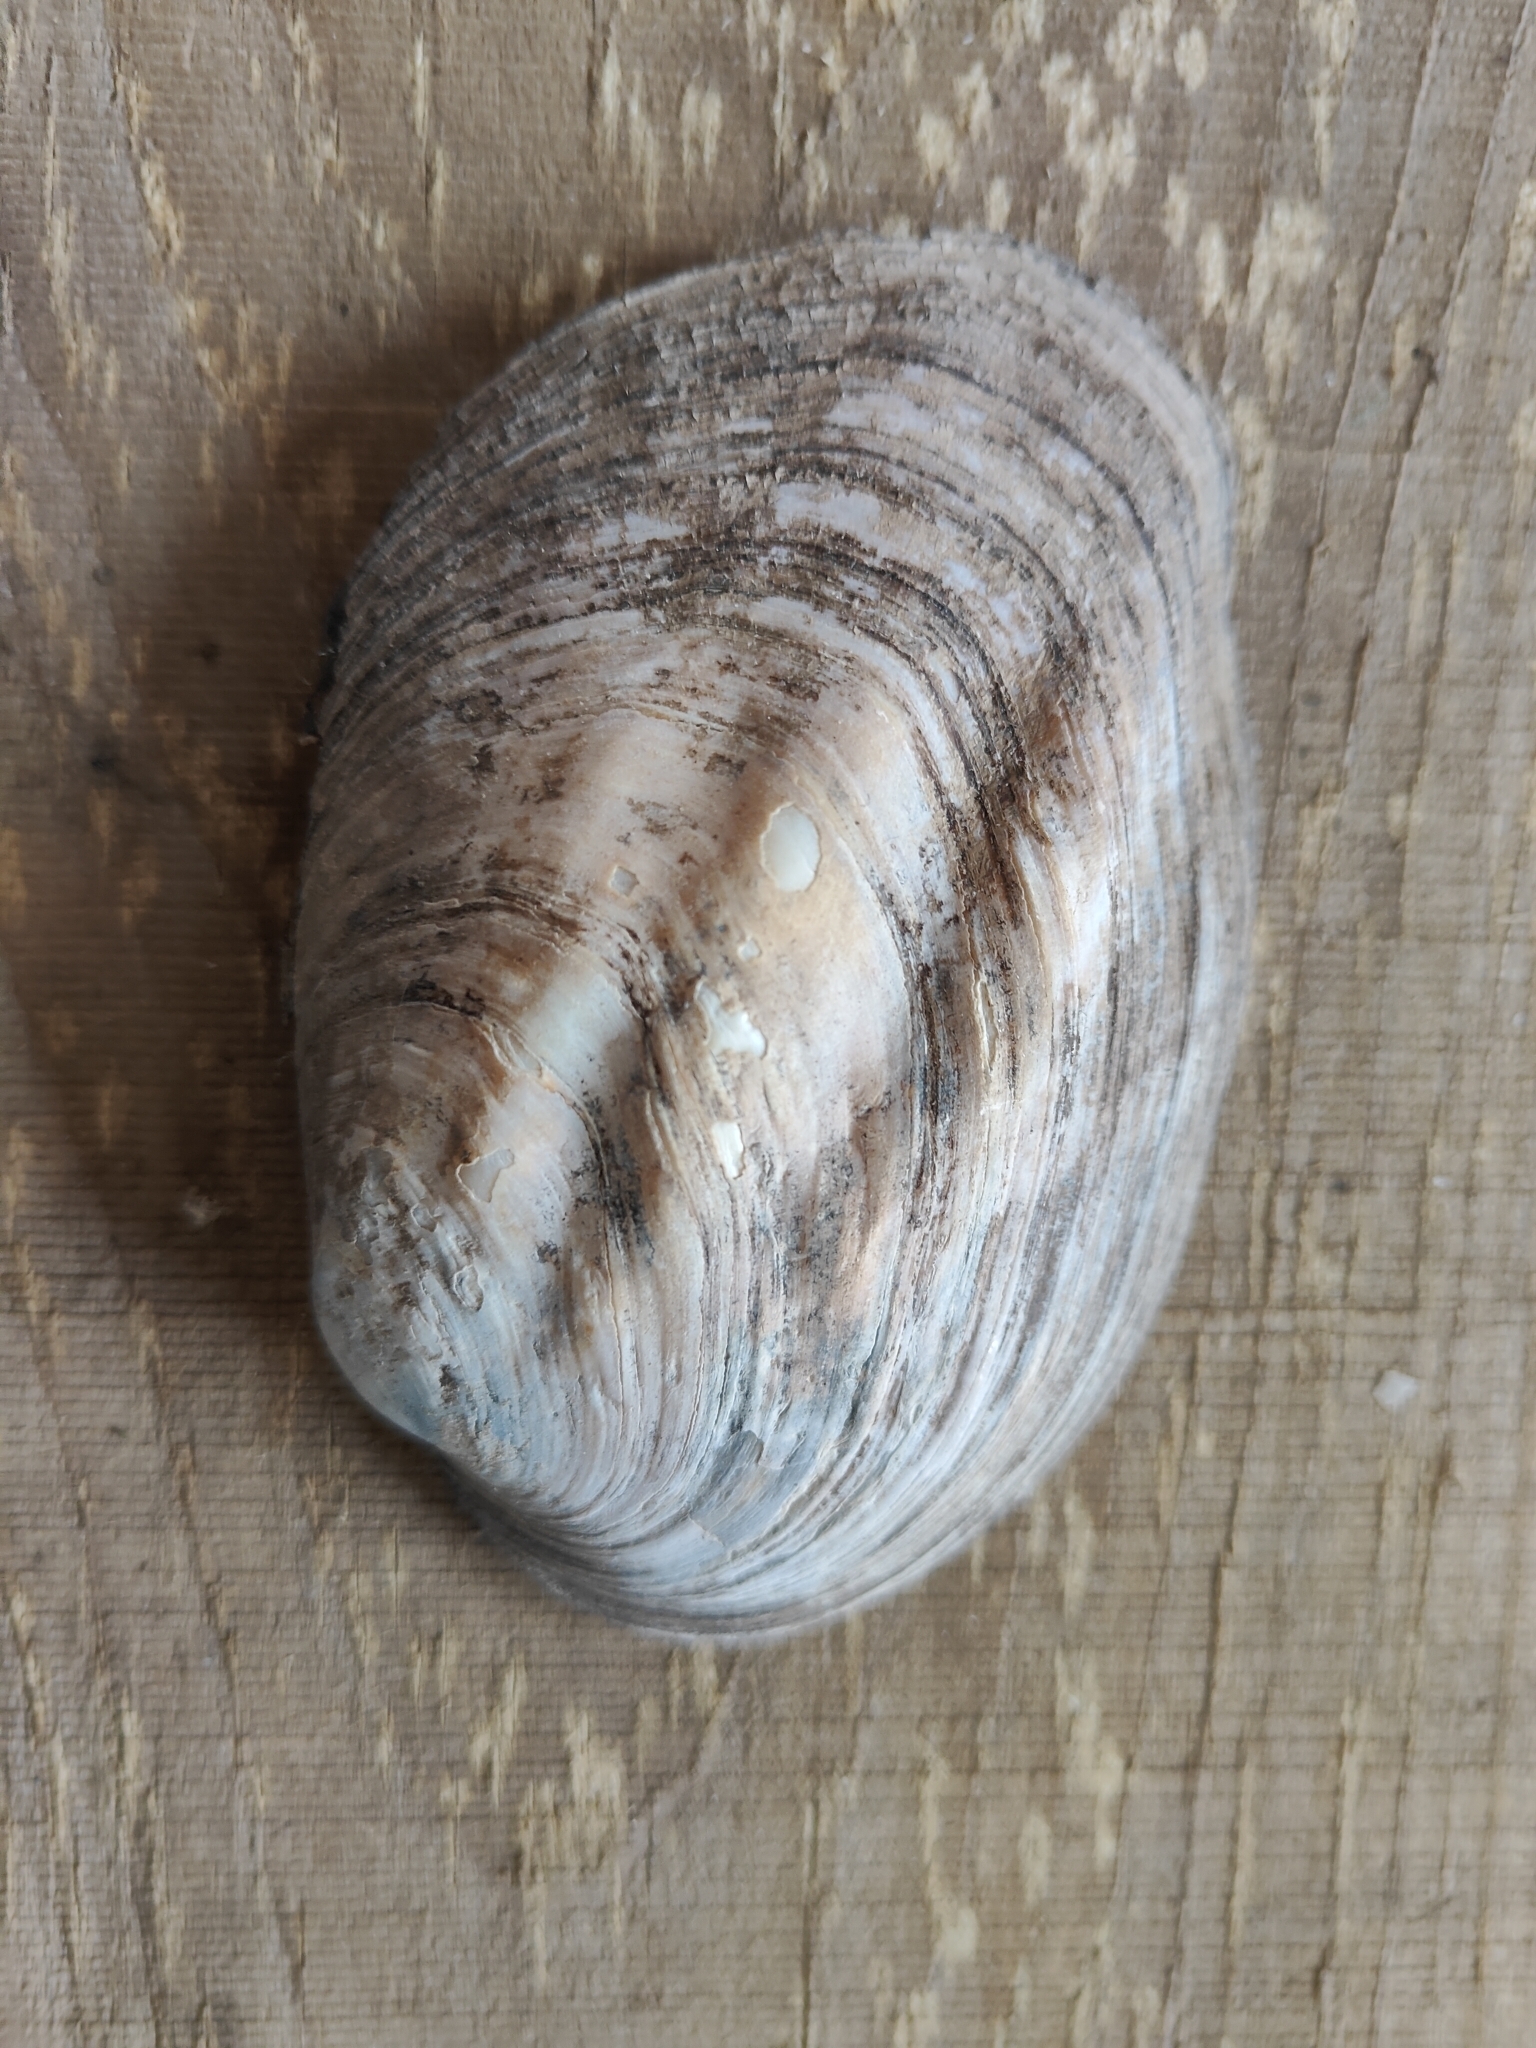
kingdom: Animalia
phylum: Mollusca
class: Bivalvia
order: Unionida
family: Unionidae
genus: Amblema
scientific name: Amblema plicata
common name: Threeridge
